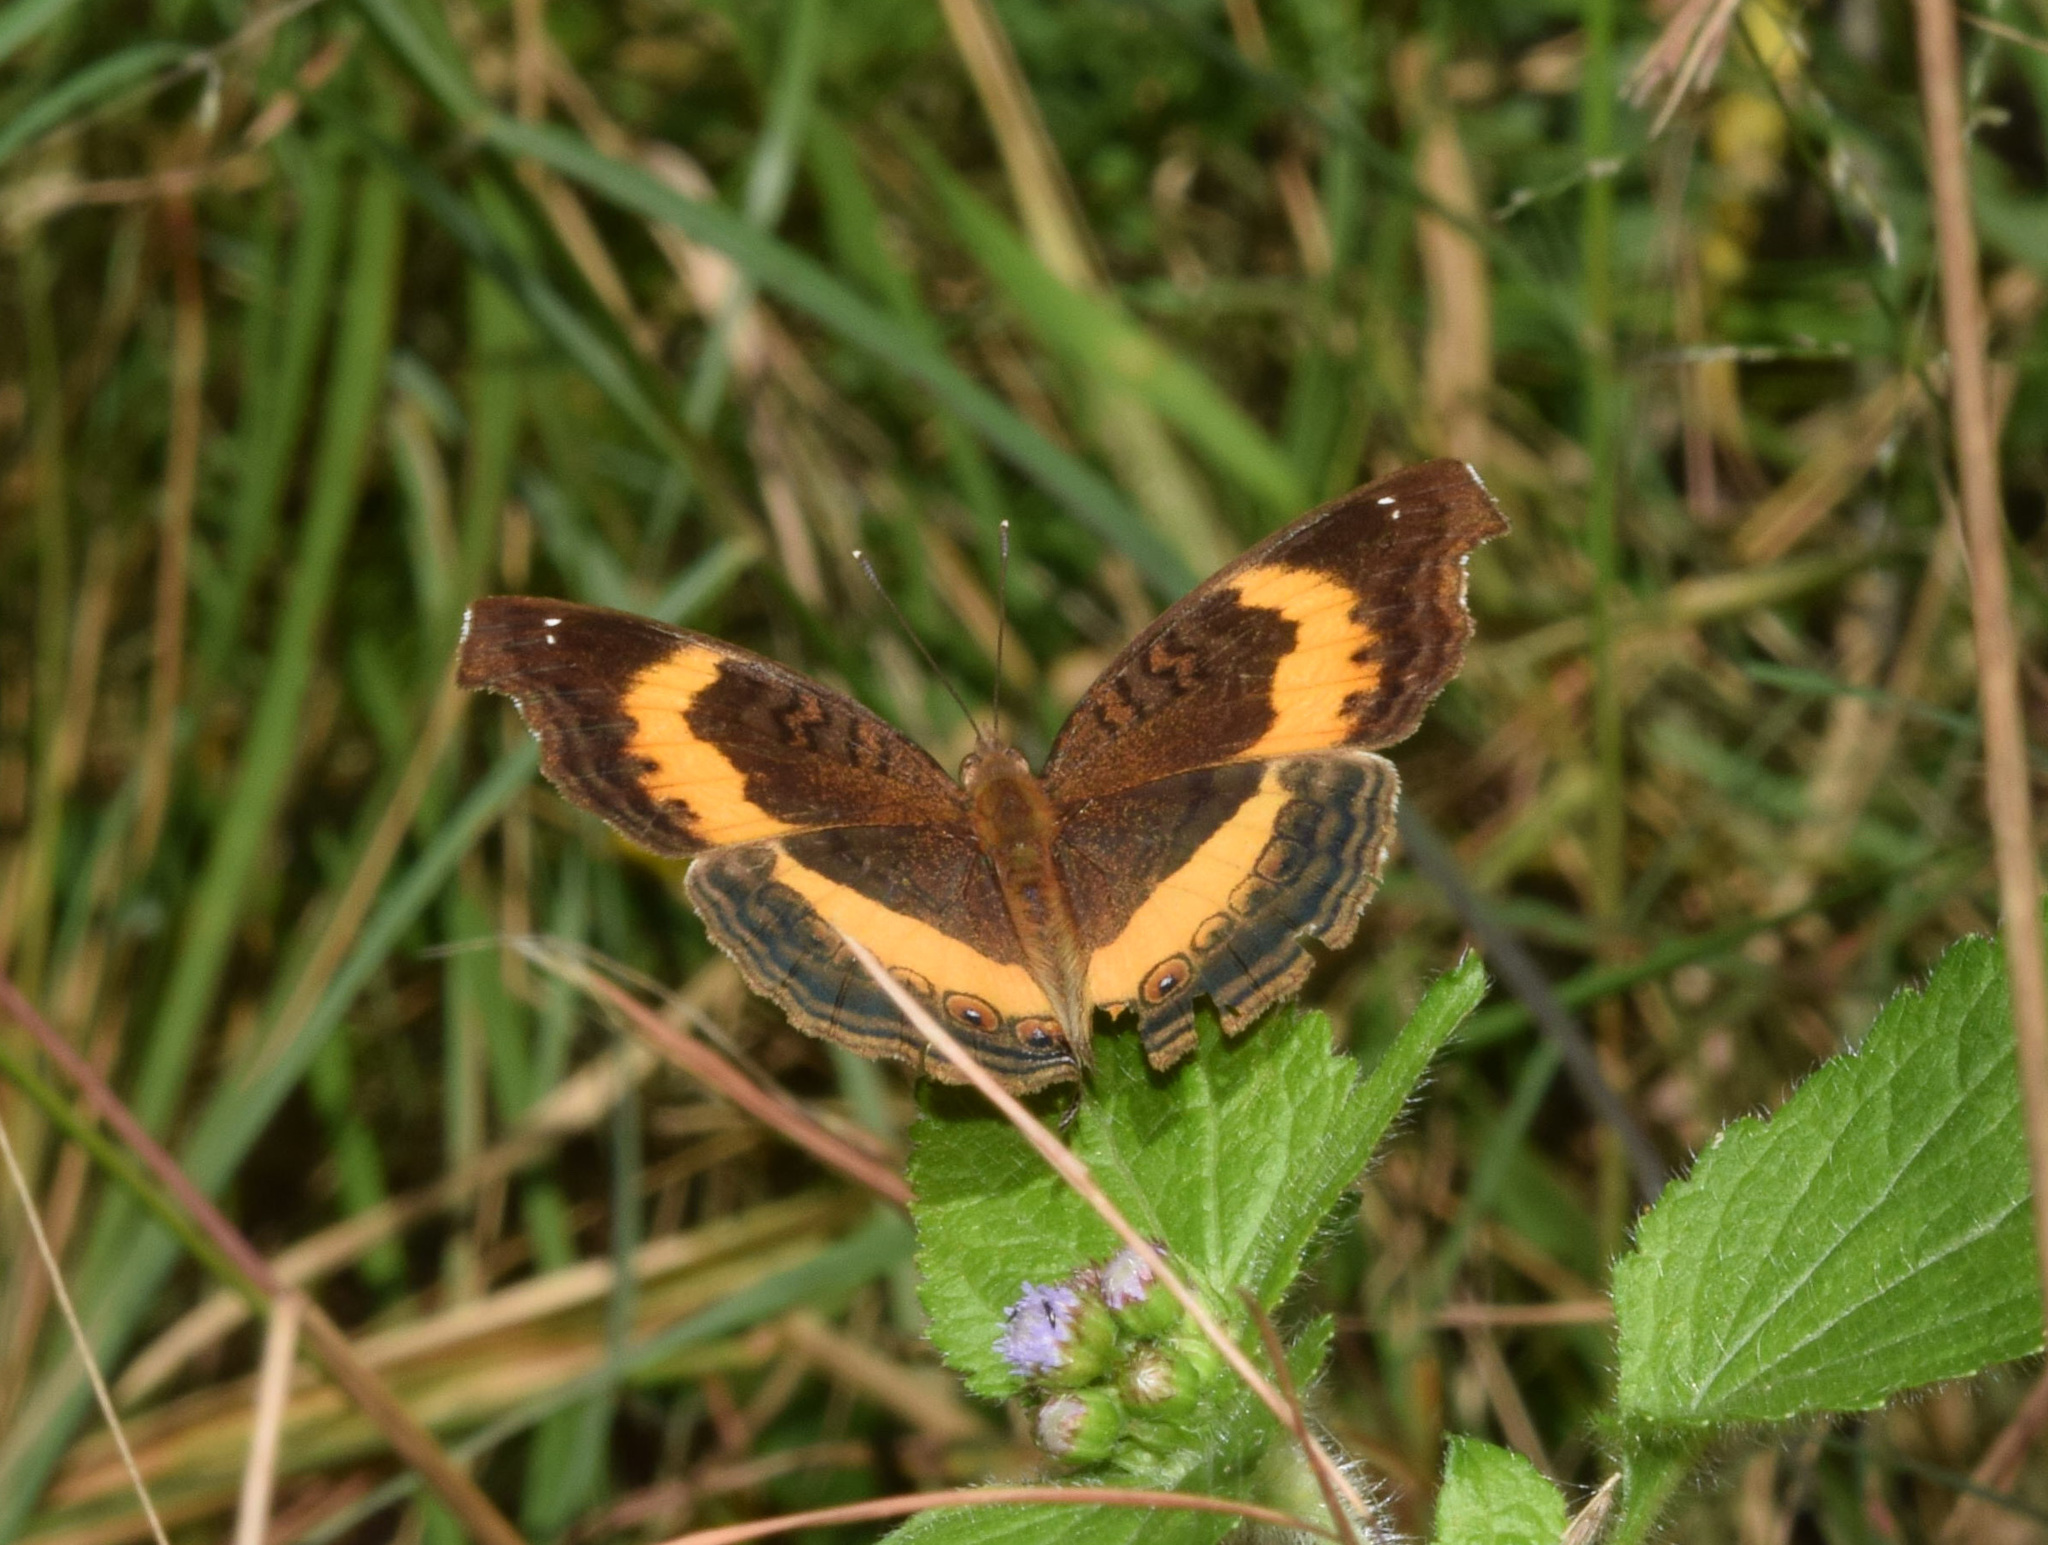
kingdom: Animalia
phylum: Arthropoda
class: Insecta
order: Lepidoptera
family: Nymphalidae
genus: Junonia
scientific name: Junonia terea
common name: Soldier pansy
